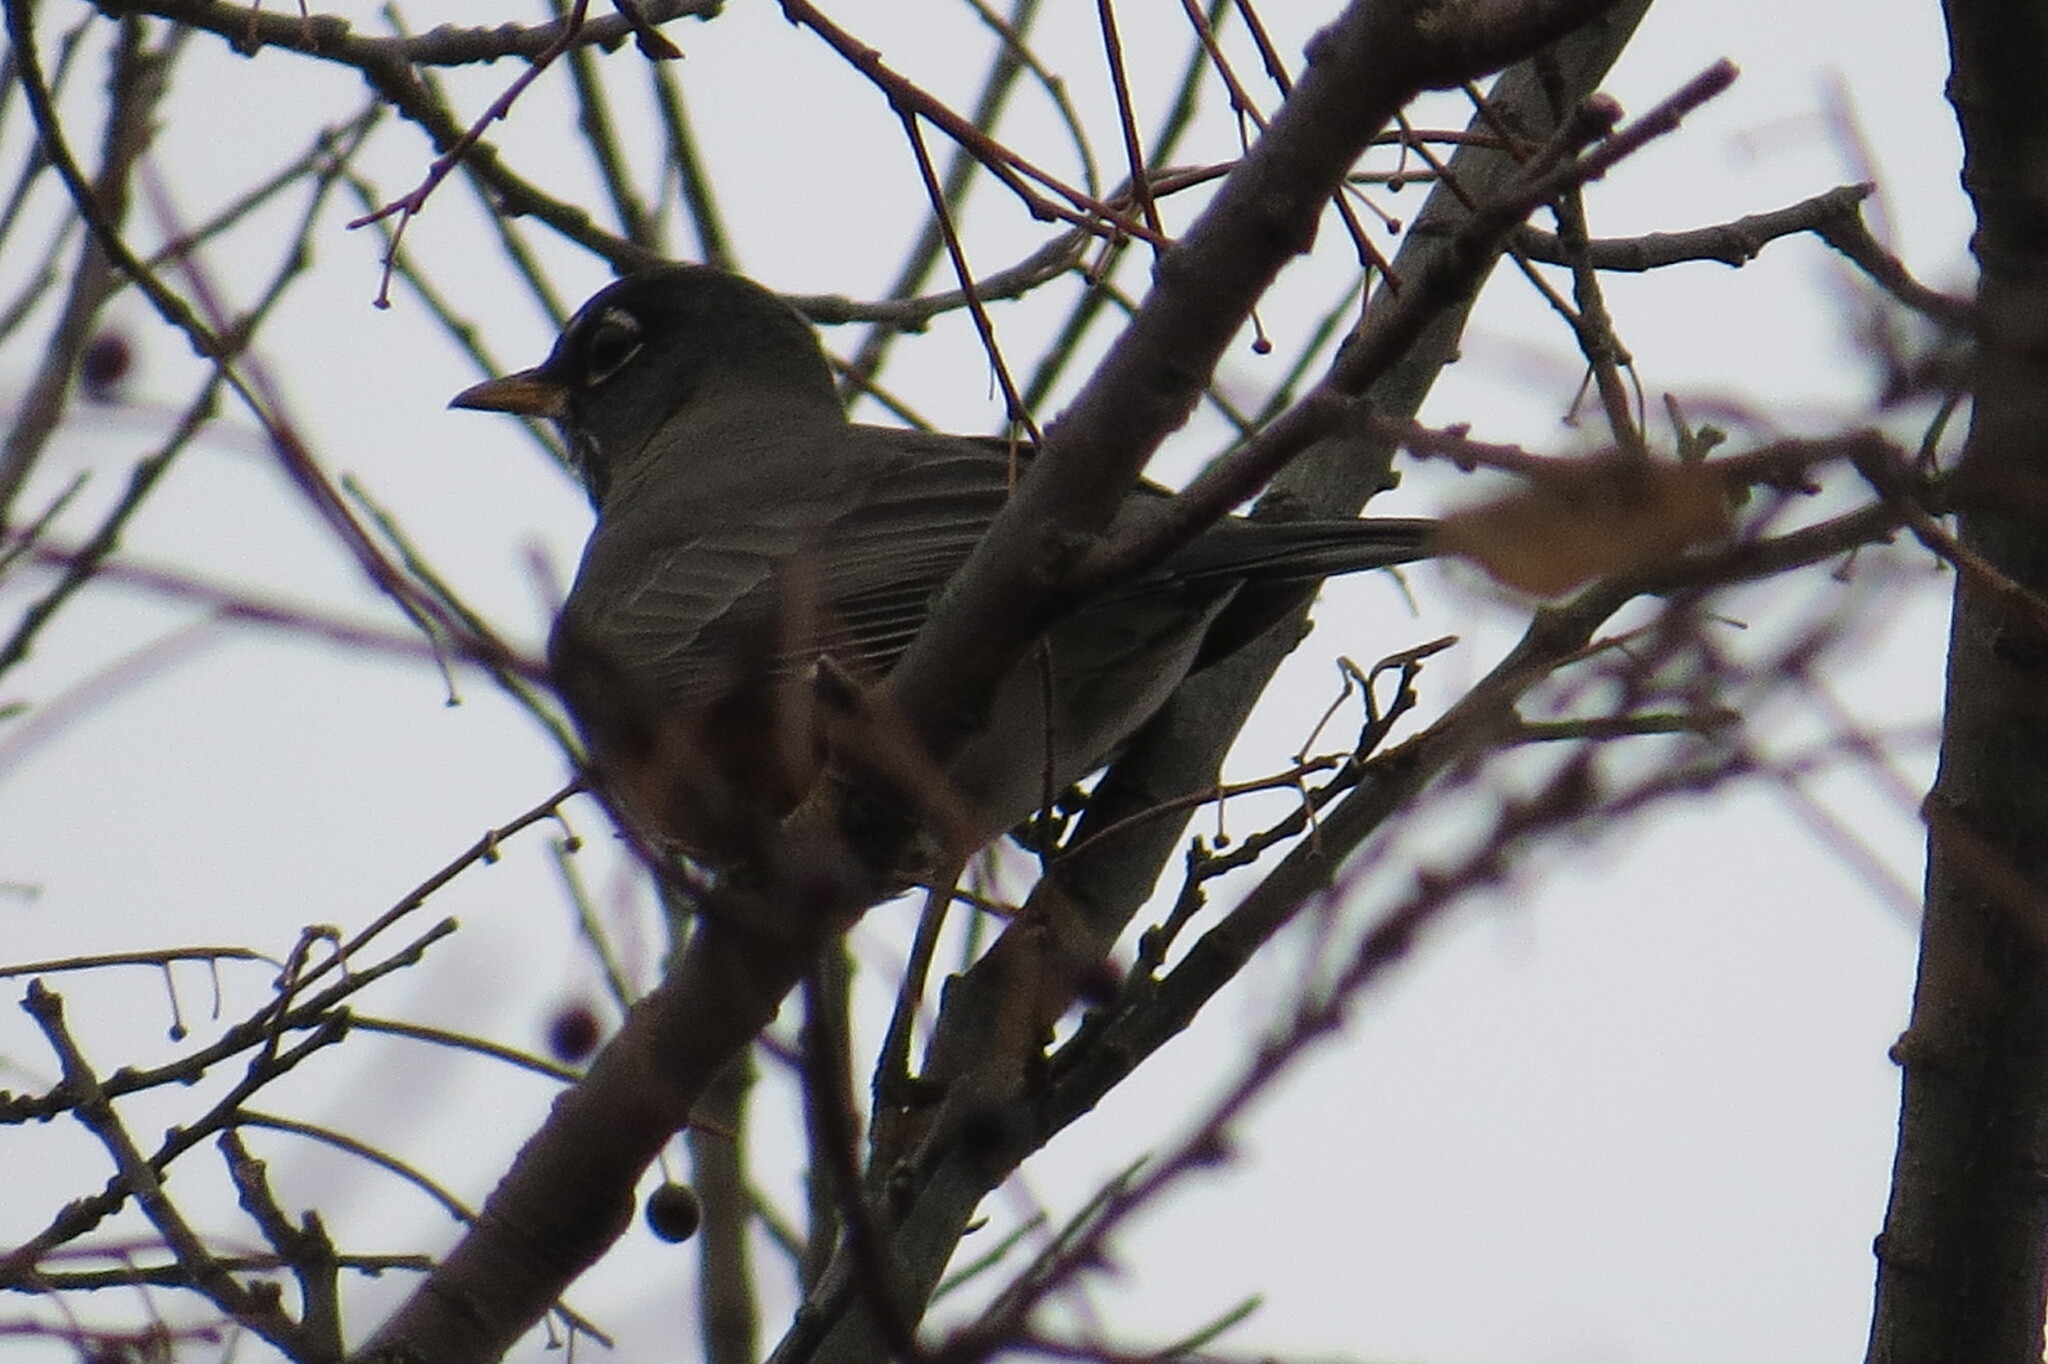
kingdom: Animalia
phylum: Chordata
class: Aves
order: Passeriformes
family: Turdidae
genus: Turdus
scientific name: Turdus migratorius
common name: American robin
